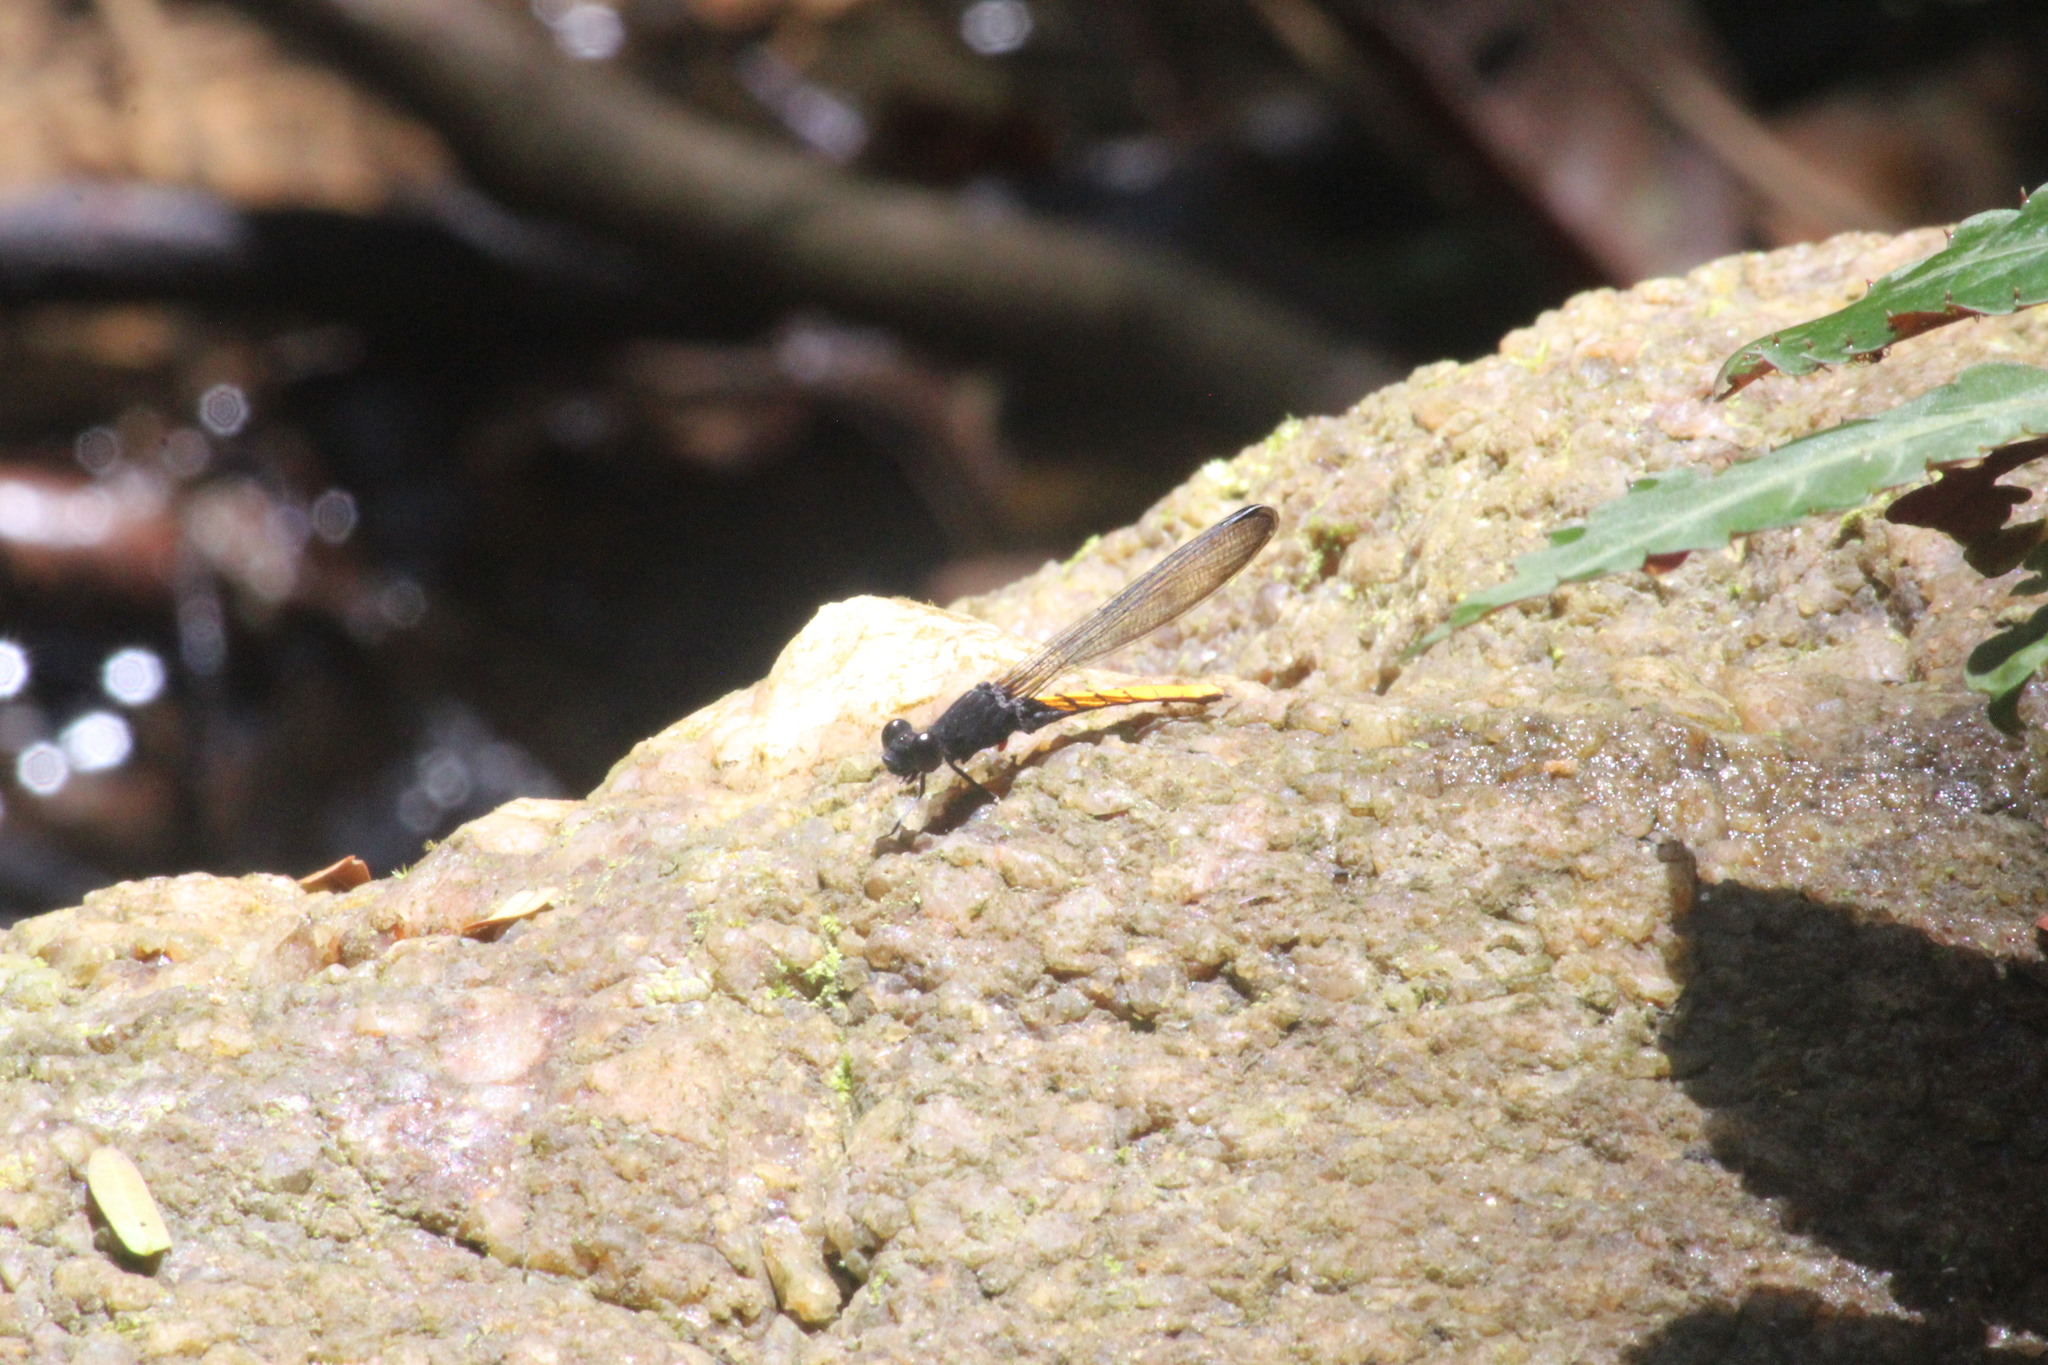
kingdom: Animalia
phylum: Arthropoda
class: Insecta
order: Odonata
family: Chlorocyphidae
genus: Chlorocypha
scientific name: Chlorocypha schmidti
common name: Albertine jewel
